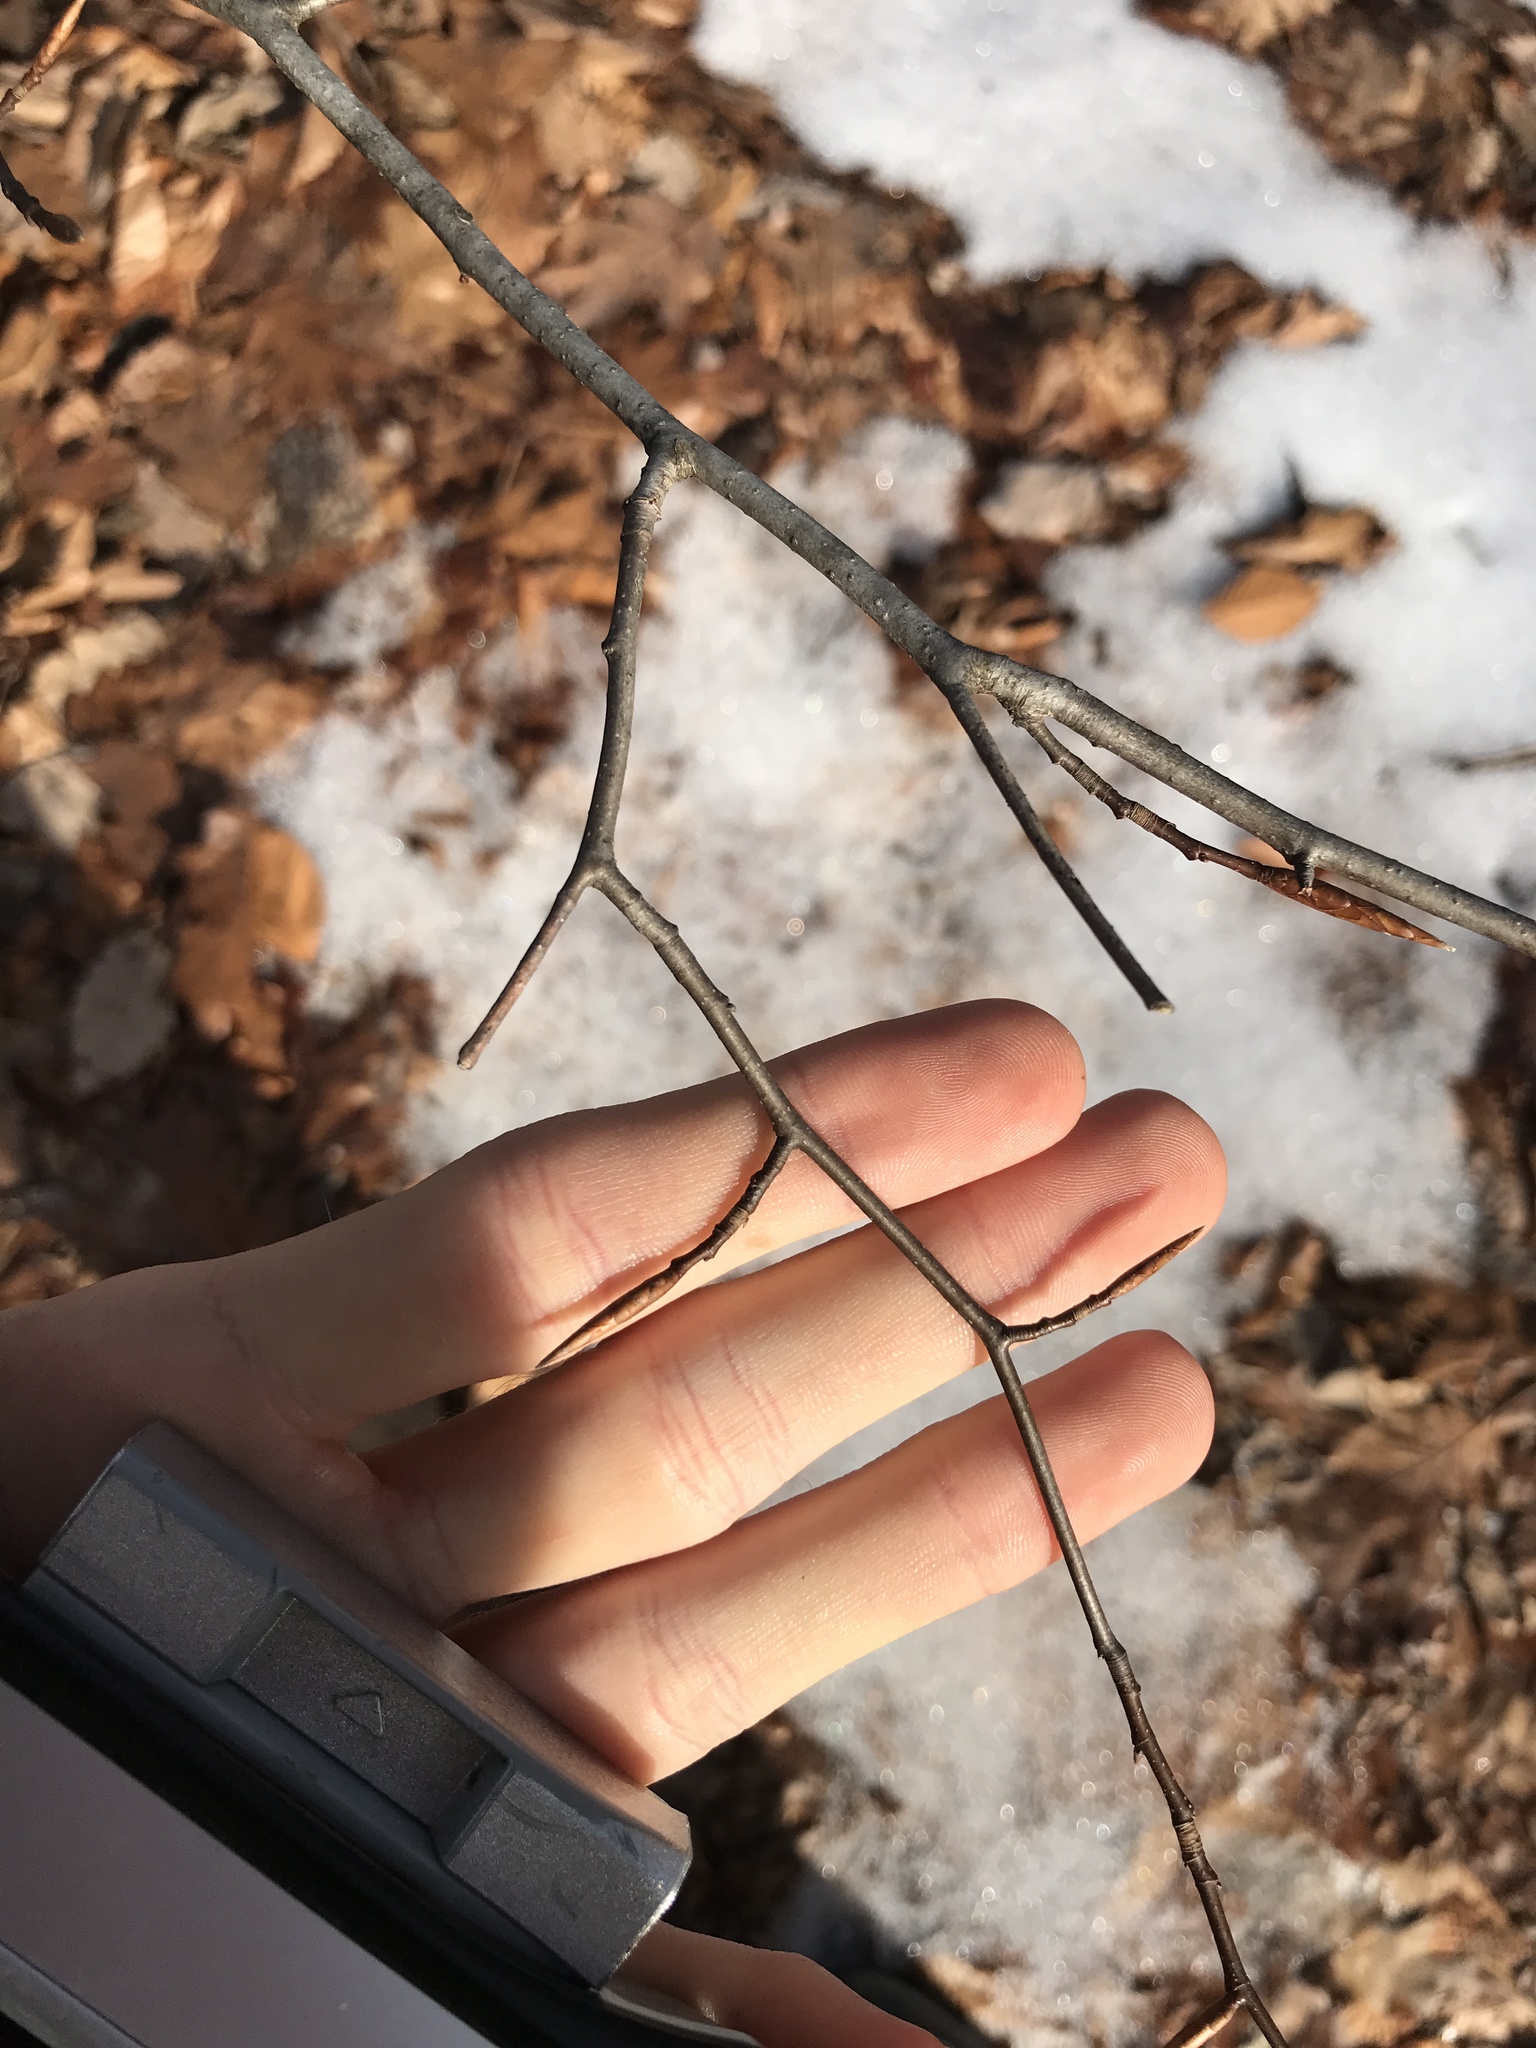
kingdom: Plantae
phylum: Tracheophyta
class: Magnoliopsida
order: Fagales
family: Fagaceae
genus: Fagus
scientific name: Fagus grandifolia
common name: American beech
